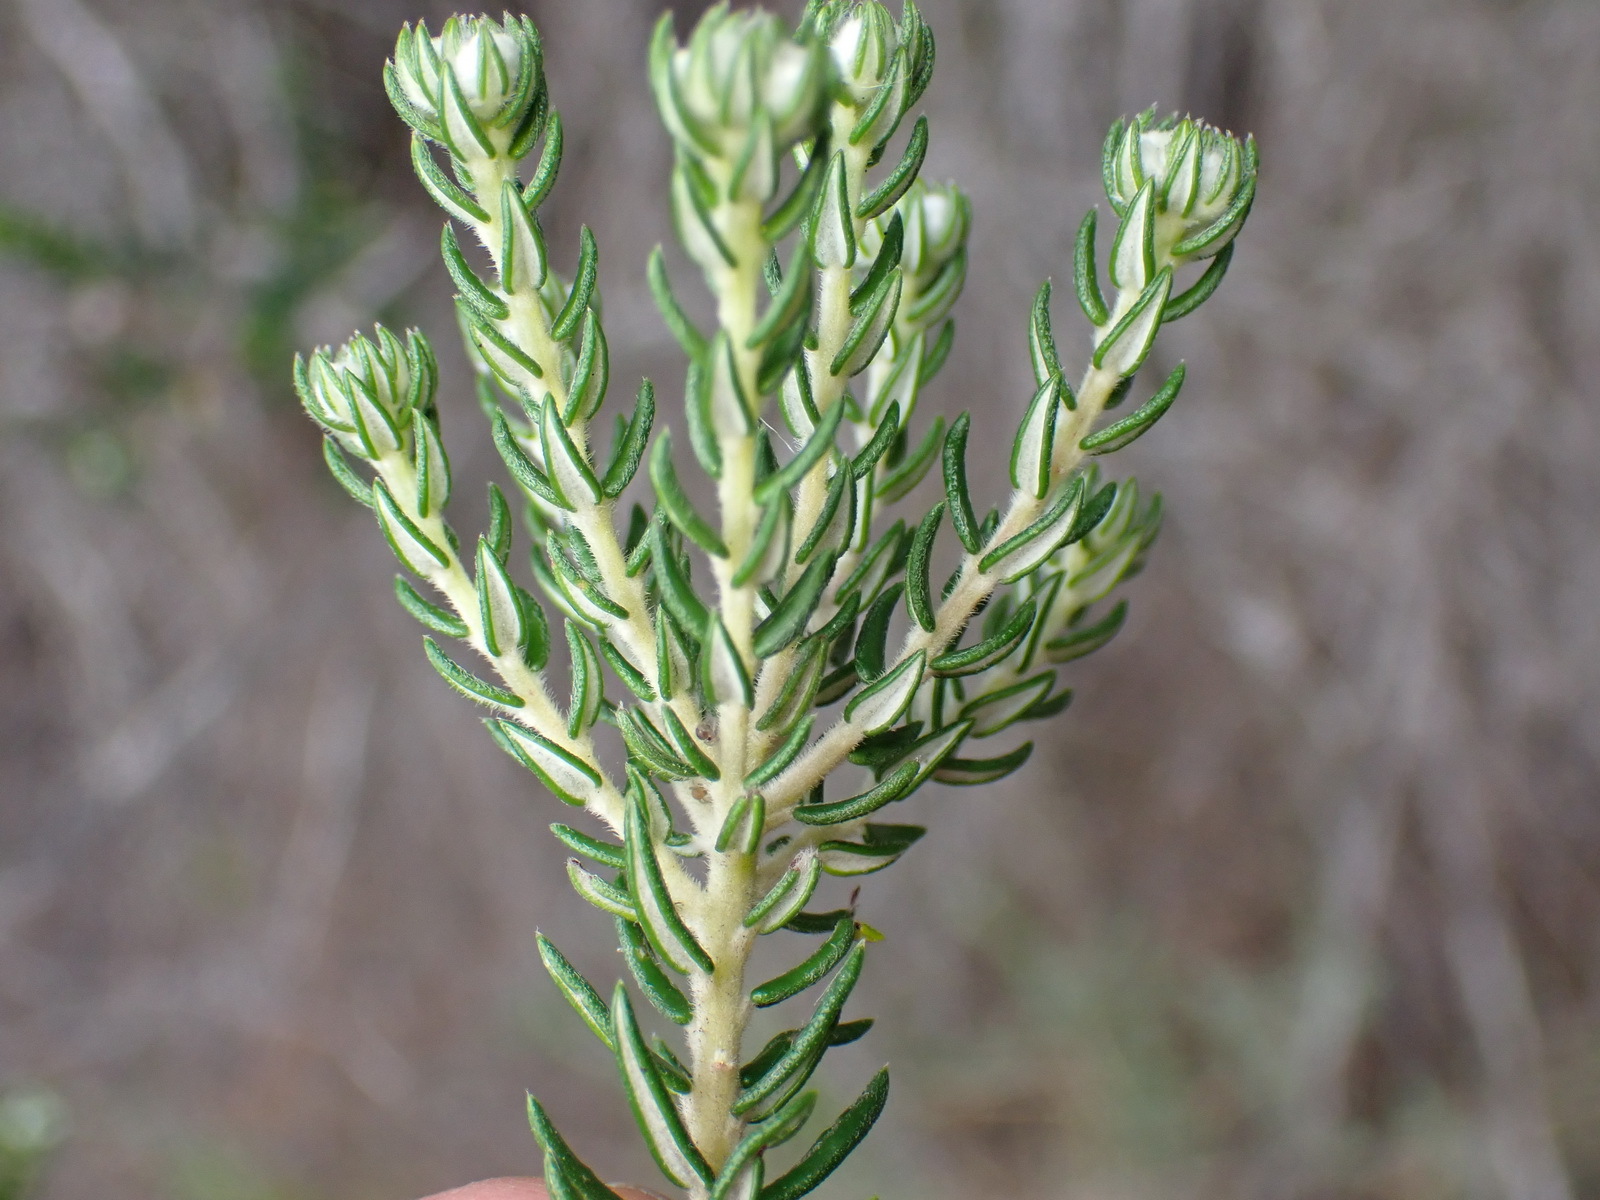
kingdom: Plantae
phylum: Tracheophyta
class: Magnoliopsida
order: Rosales
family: Rhamnaceae
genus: Phylica
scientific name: Phylica purpurea
